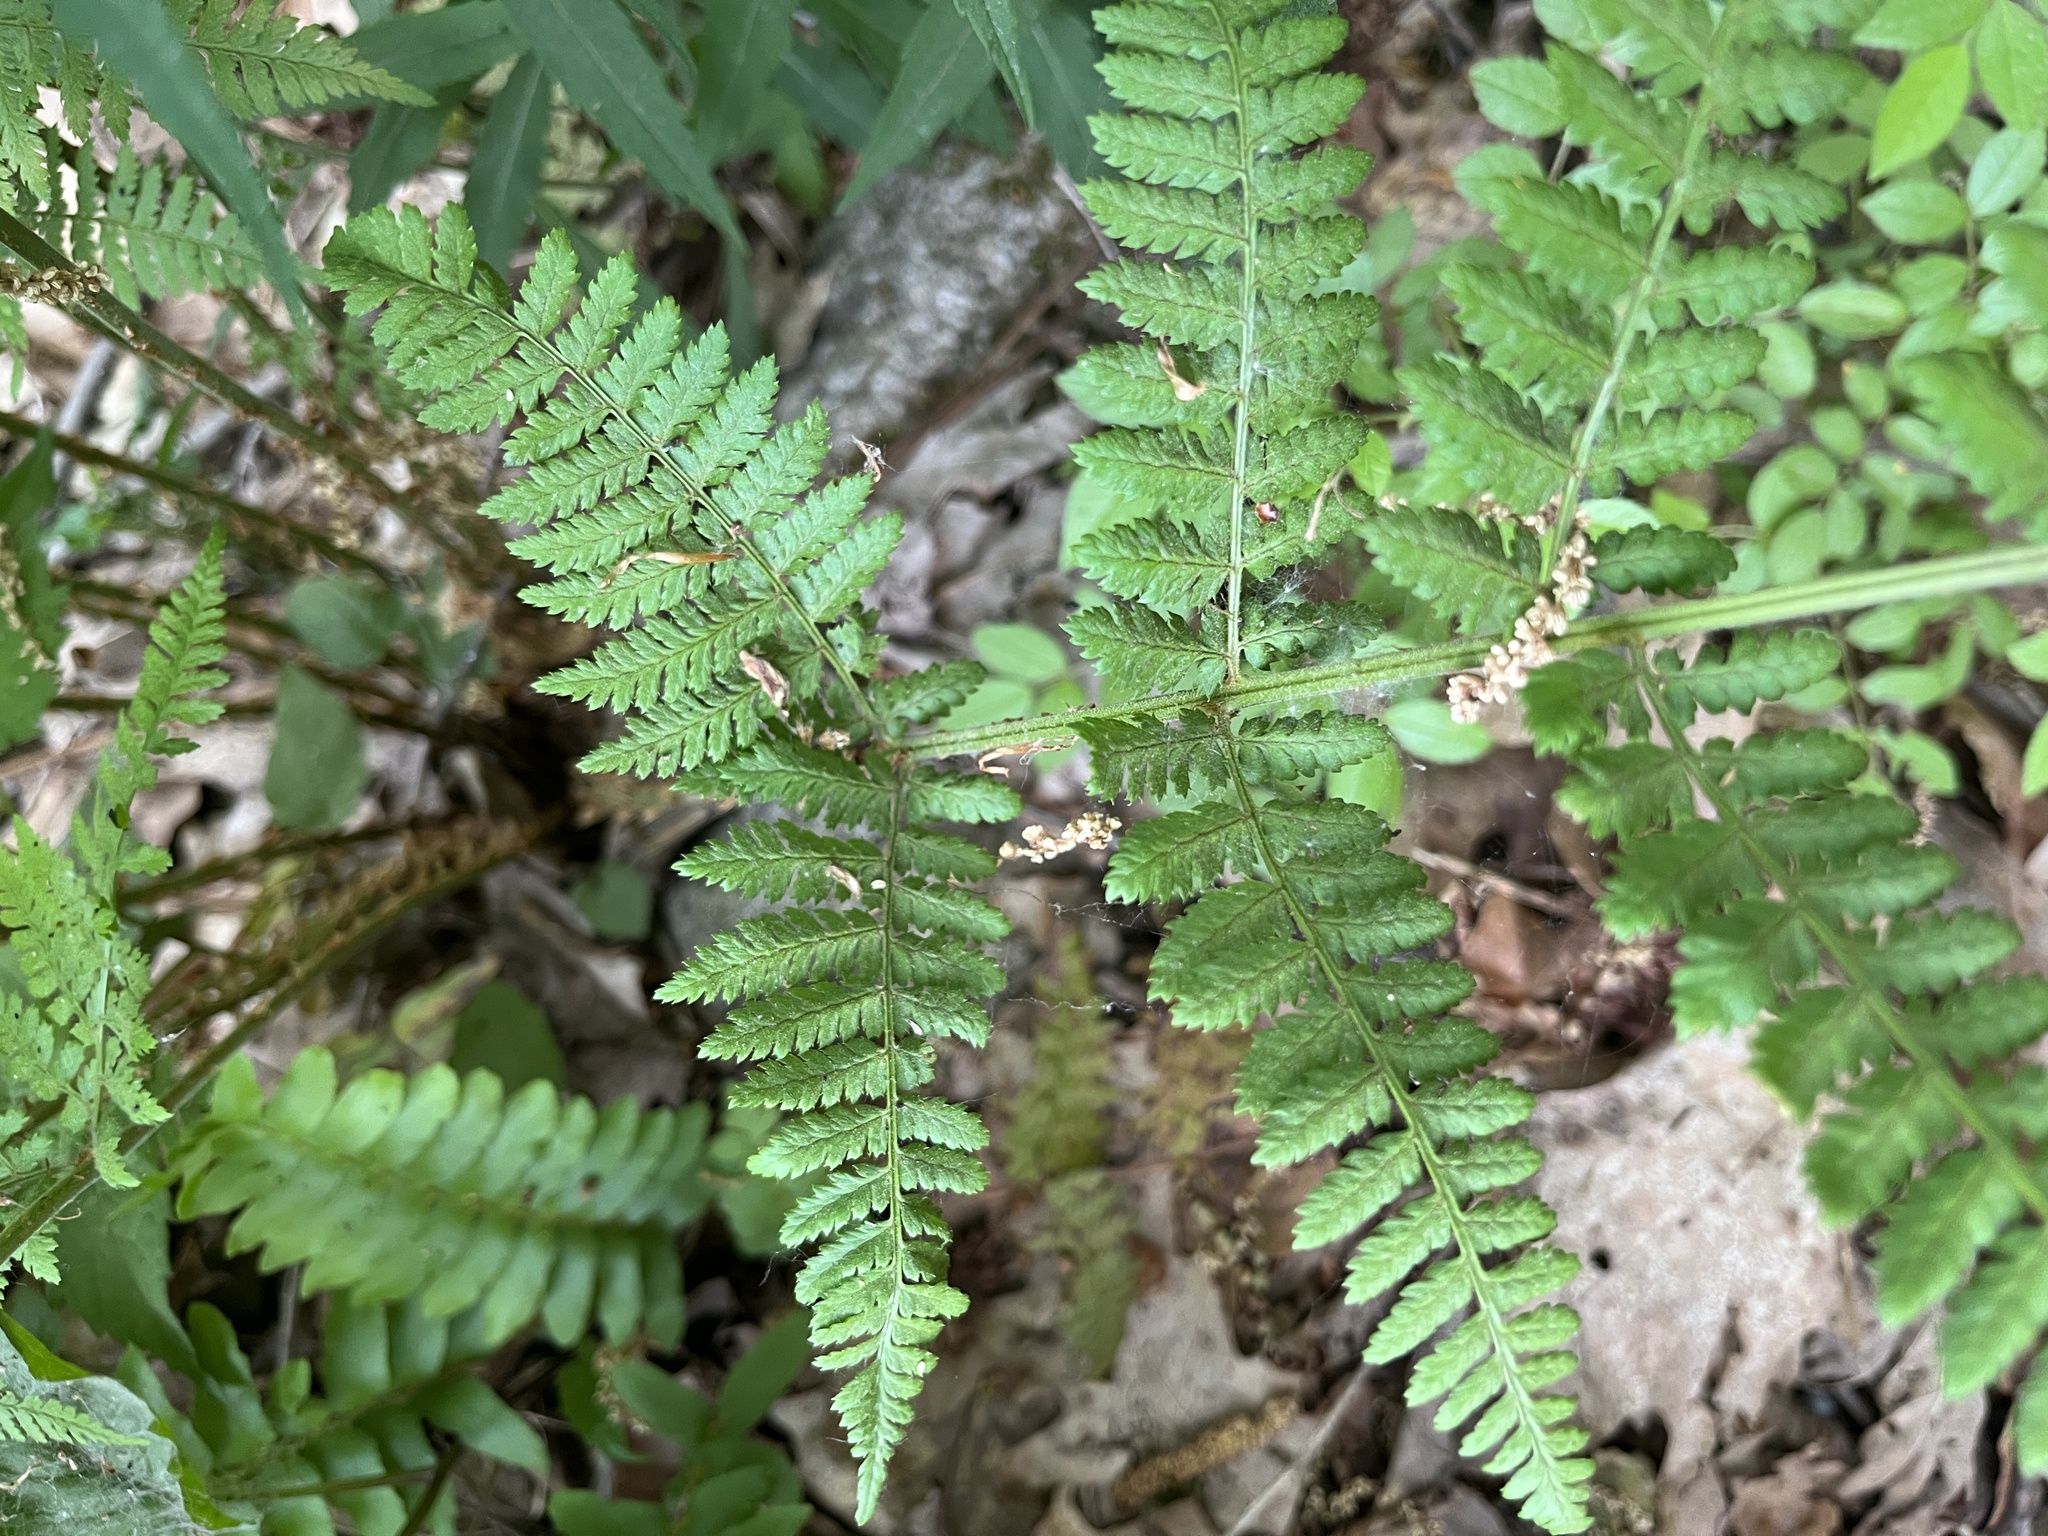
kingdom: Plantae
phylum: Tracheophyta
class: Polypodiopsida
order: Polypodiales
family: Dryopteridaceae
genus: Dryopteris
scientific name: Dryopteris intermedia
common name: Evergreen wood fern
